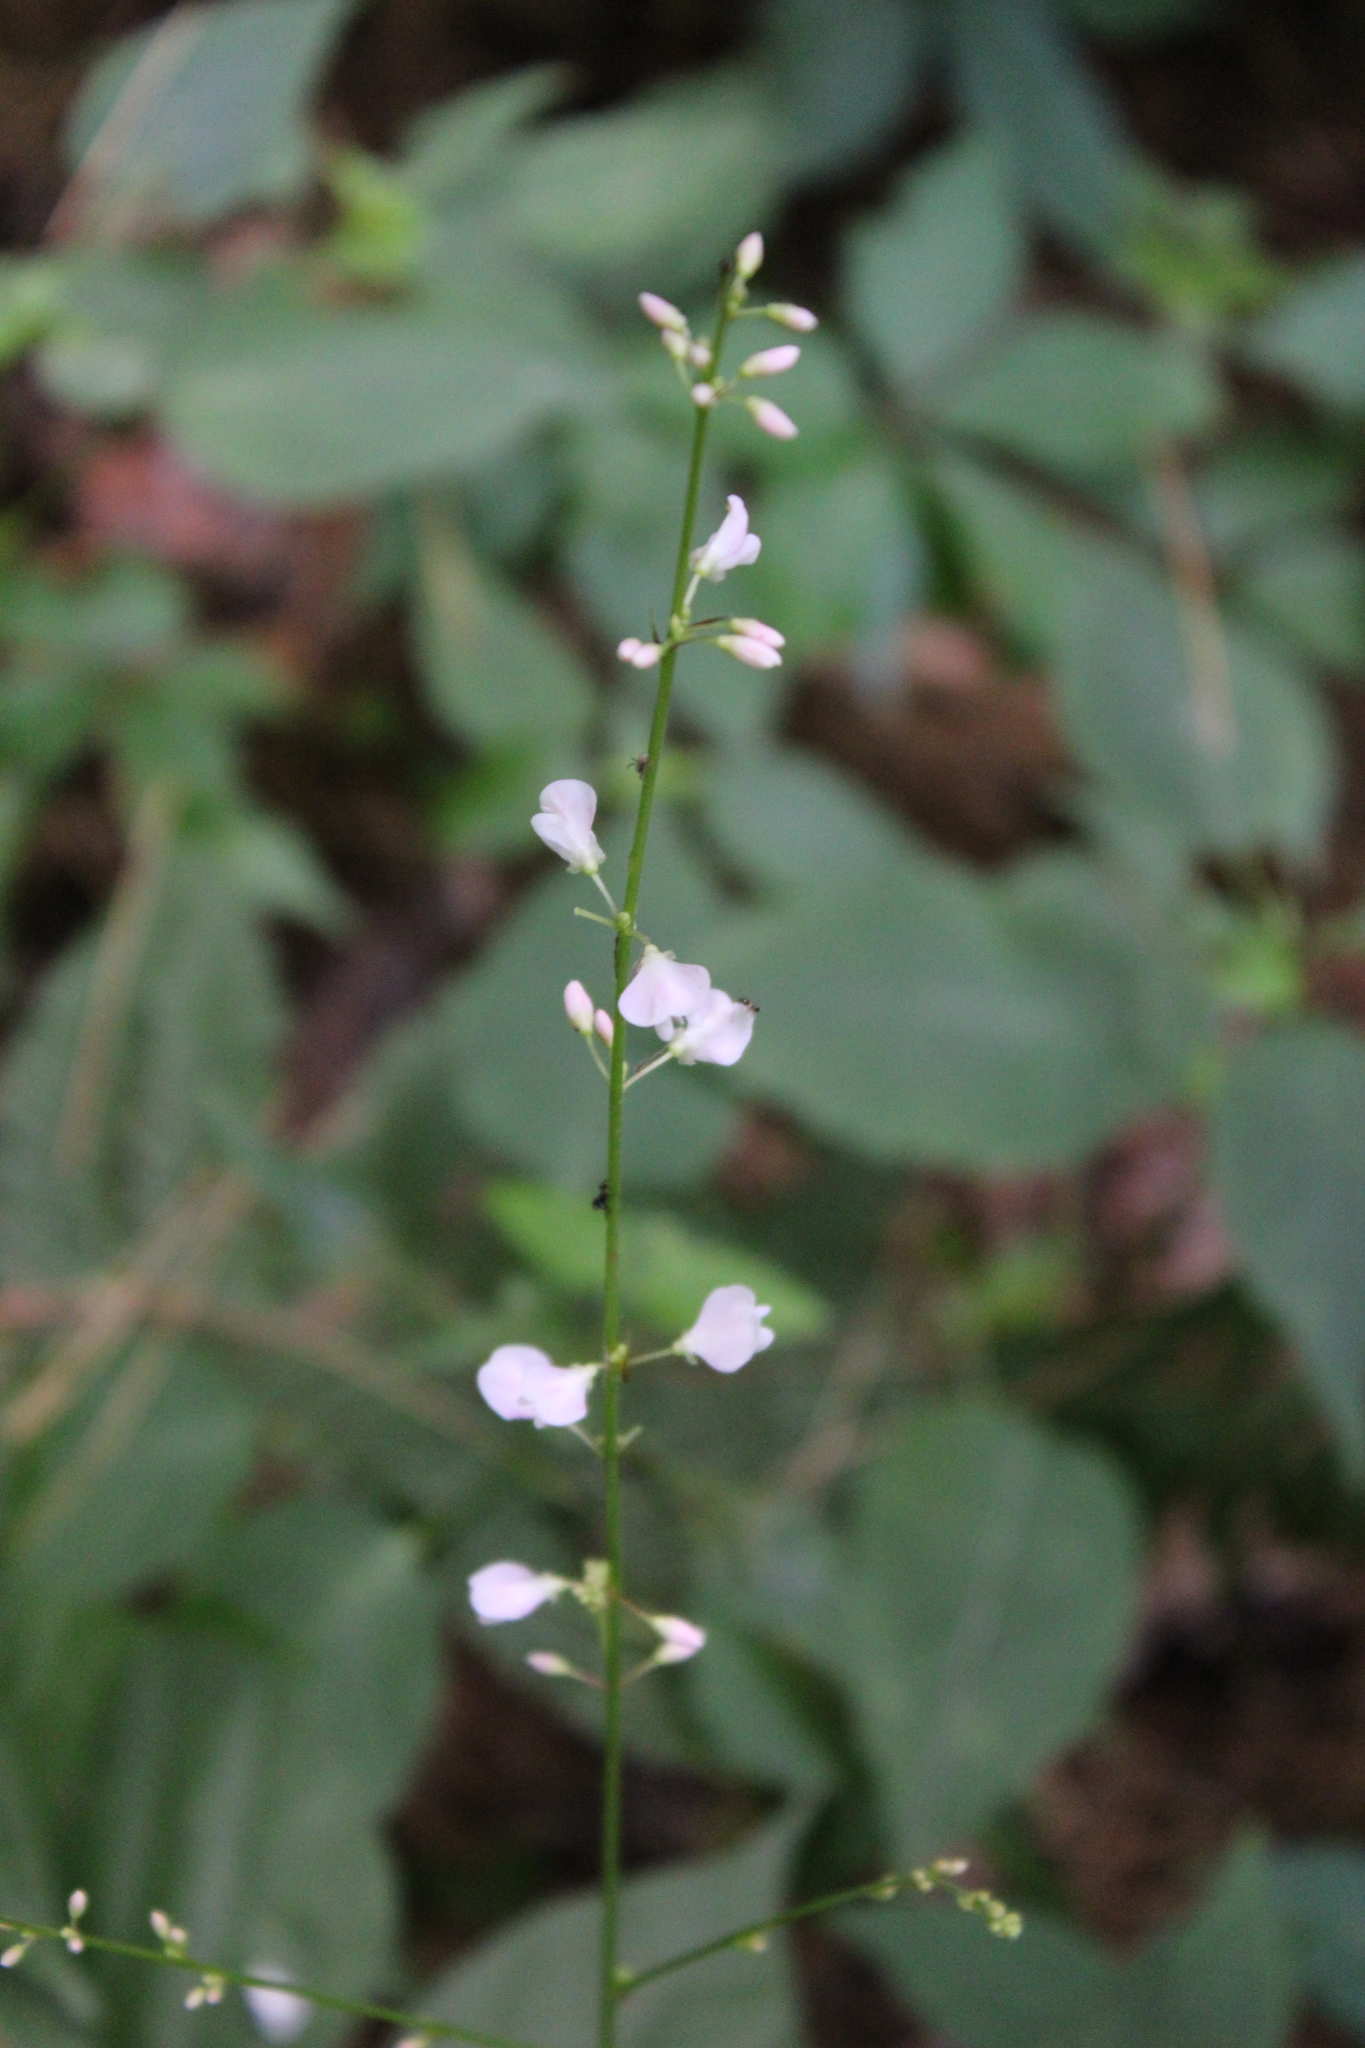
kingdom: Plantae
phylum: Tracheophyta
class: Magnoliopsida
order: Fabales
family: Fabaceae
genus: Hylodesmum
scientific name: Hylodesmum glutinosum
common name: Clustered-leaved tick-trefoil
